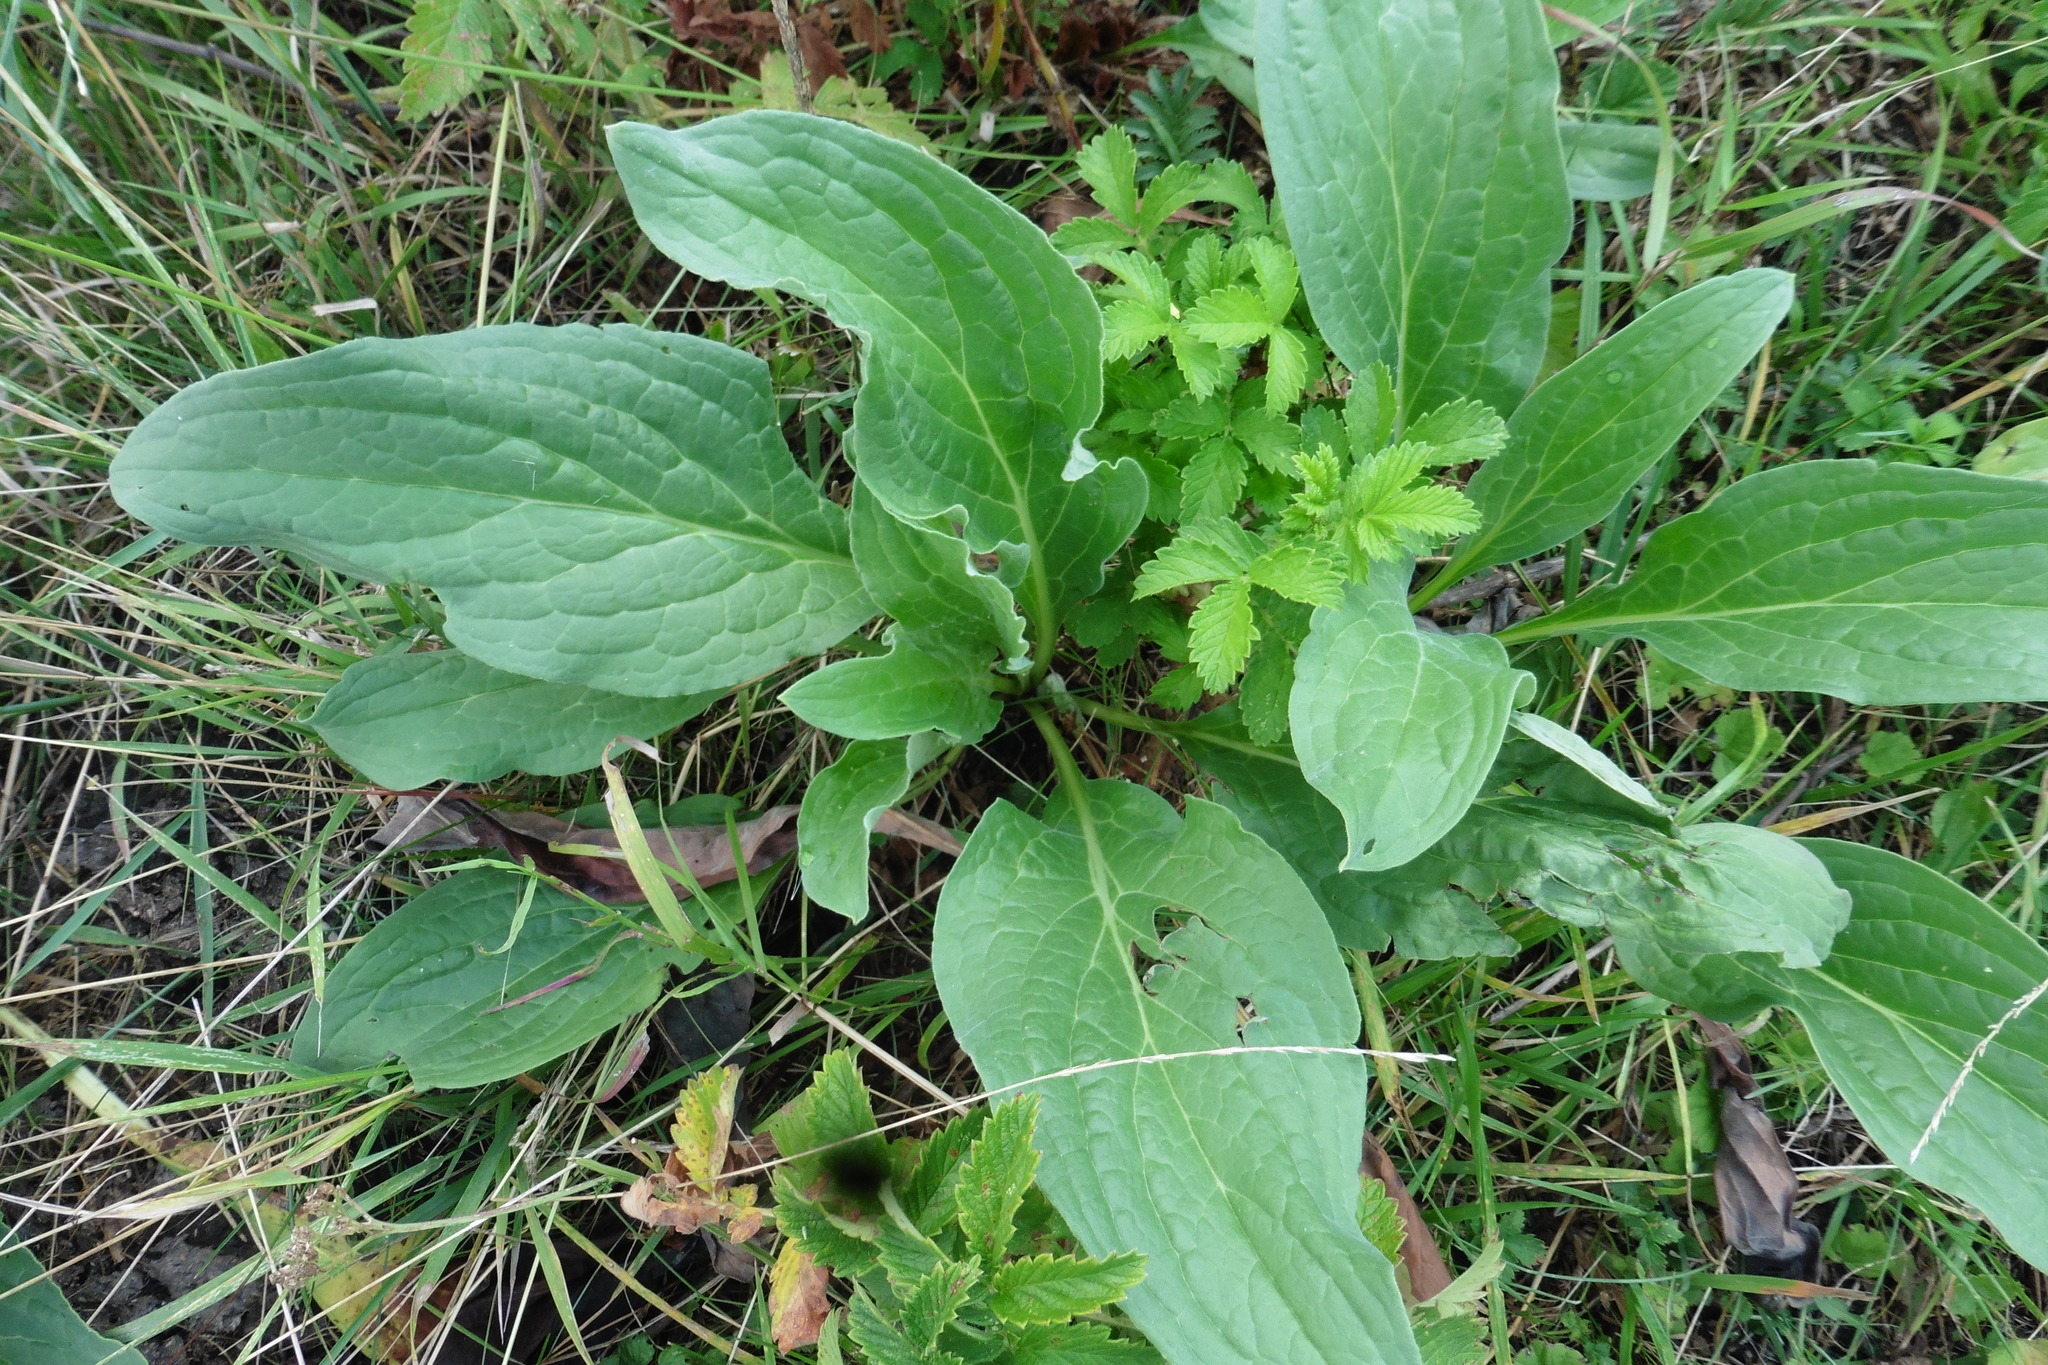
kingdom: Plantae
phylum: Tracheophyta
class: Magnoliopsida
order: Boraginales
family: Boraginaceae
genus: Cynoglossum
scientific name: Cynoglossum officinale
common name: Hound's-tongue
